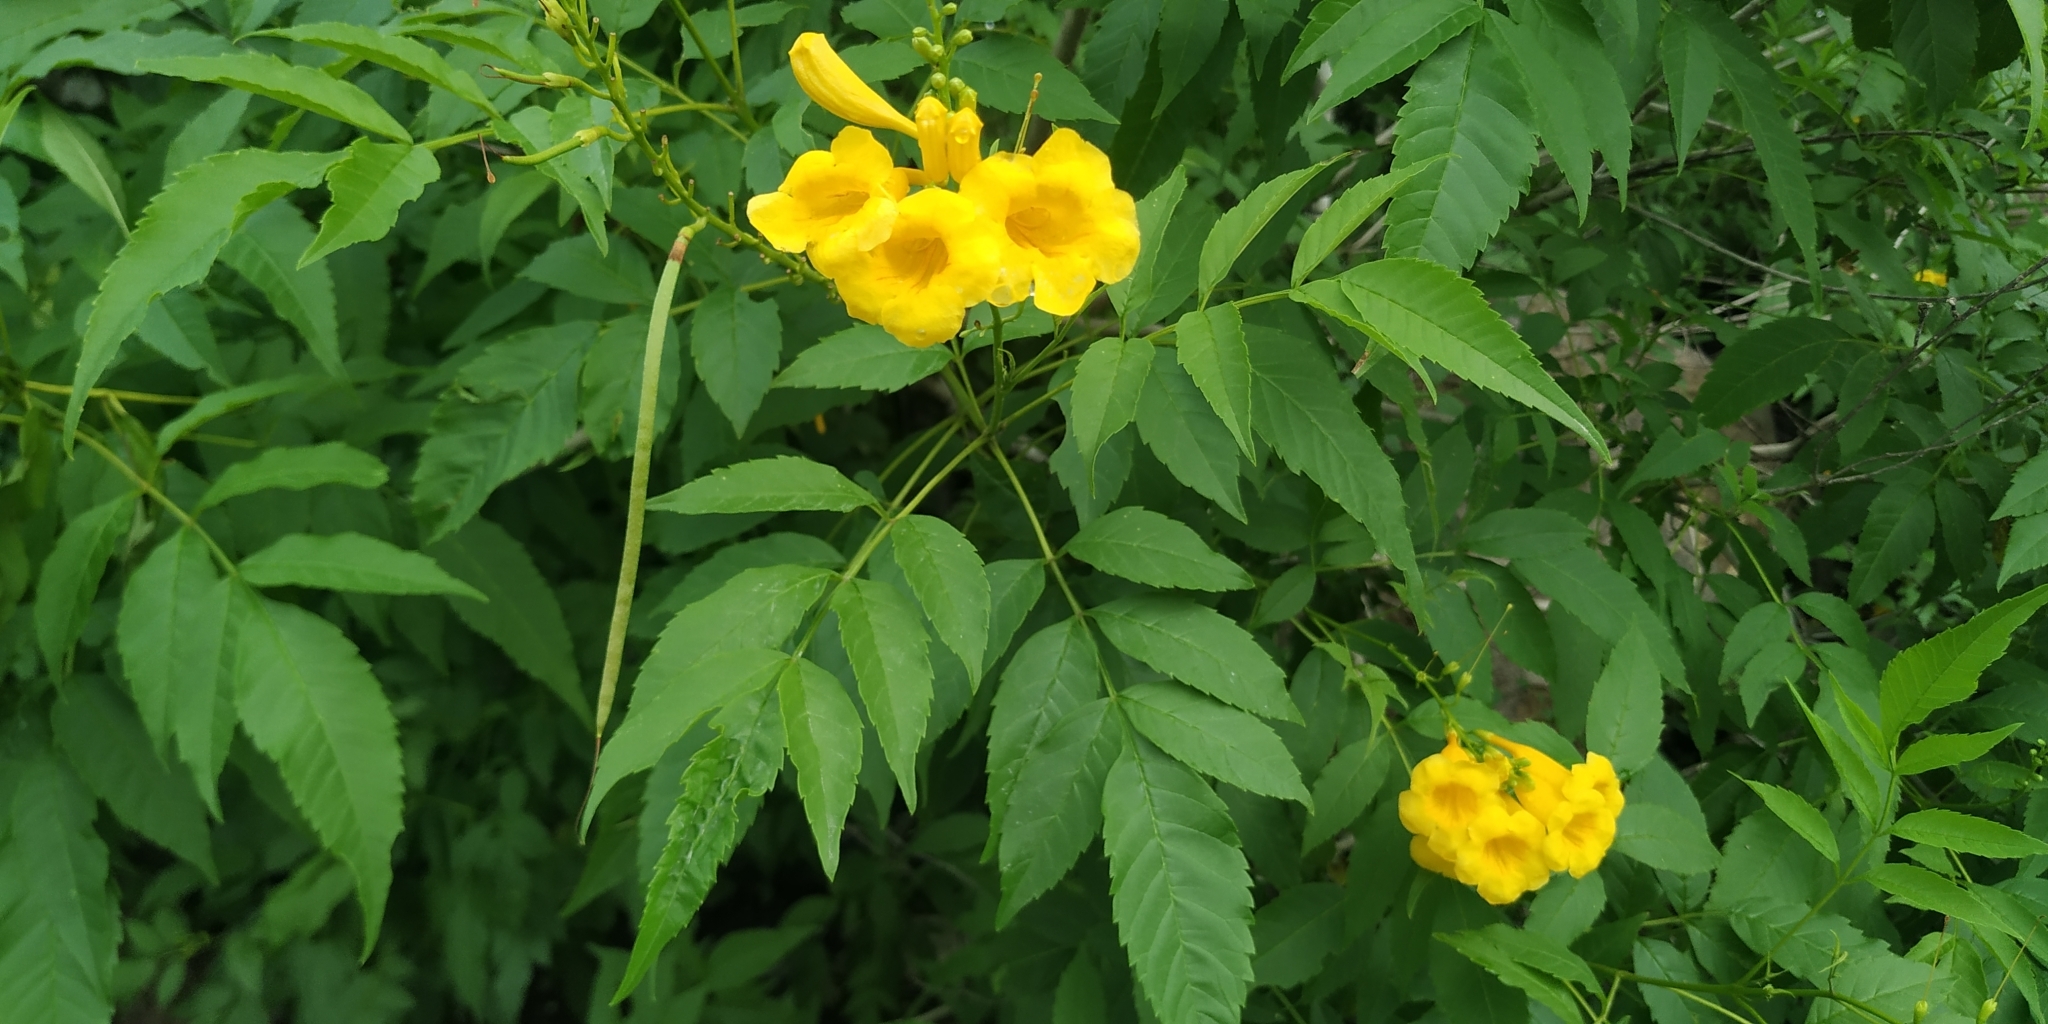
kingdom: Plantae
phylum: Tracheophyta
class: Magnoliopsida
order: Lamiales
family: Bignoniaceae
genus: Tecoma
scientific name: Tecoma stans
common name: Yellow trumpetbush
